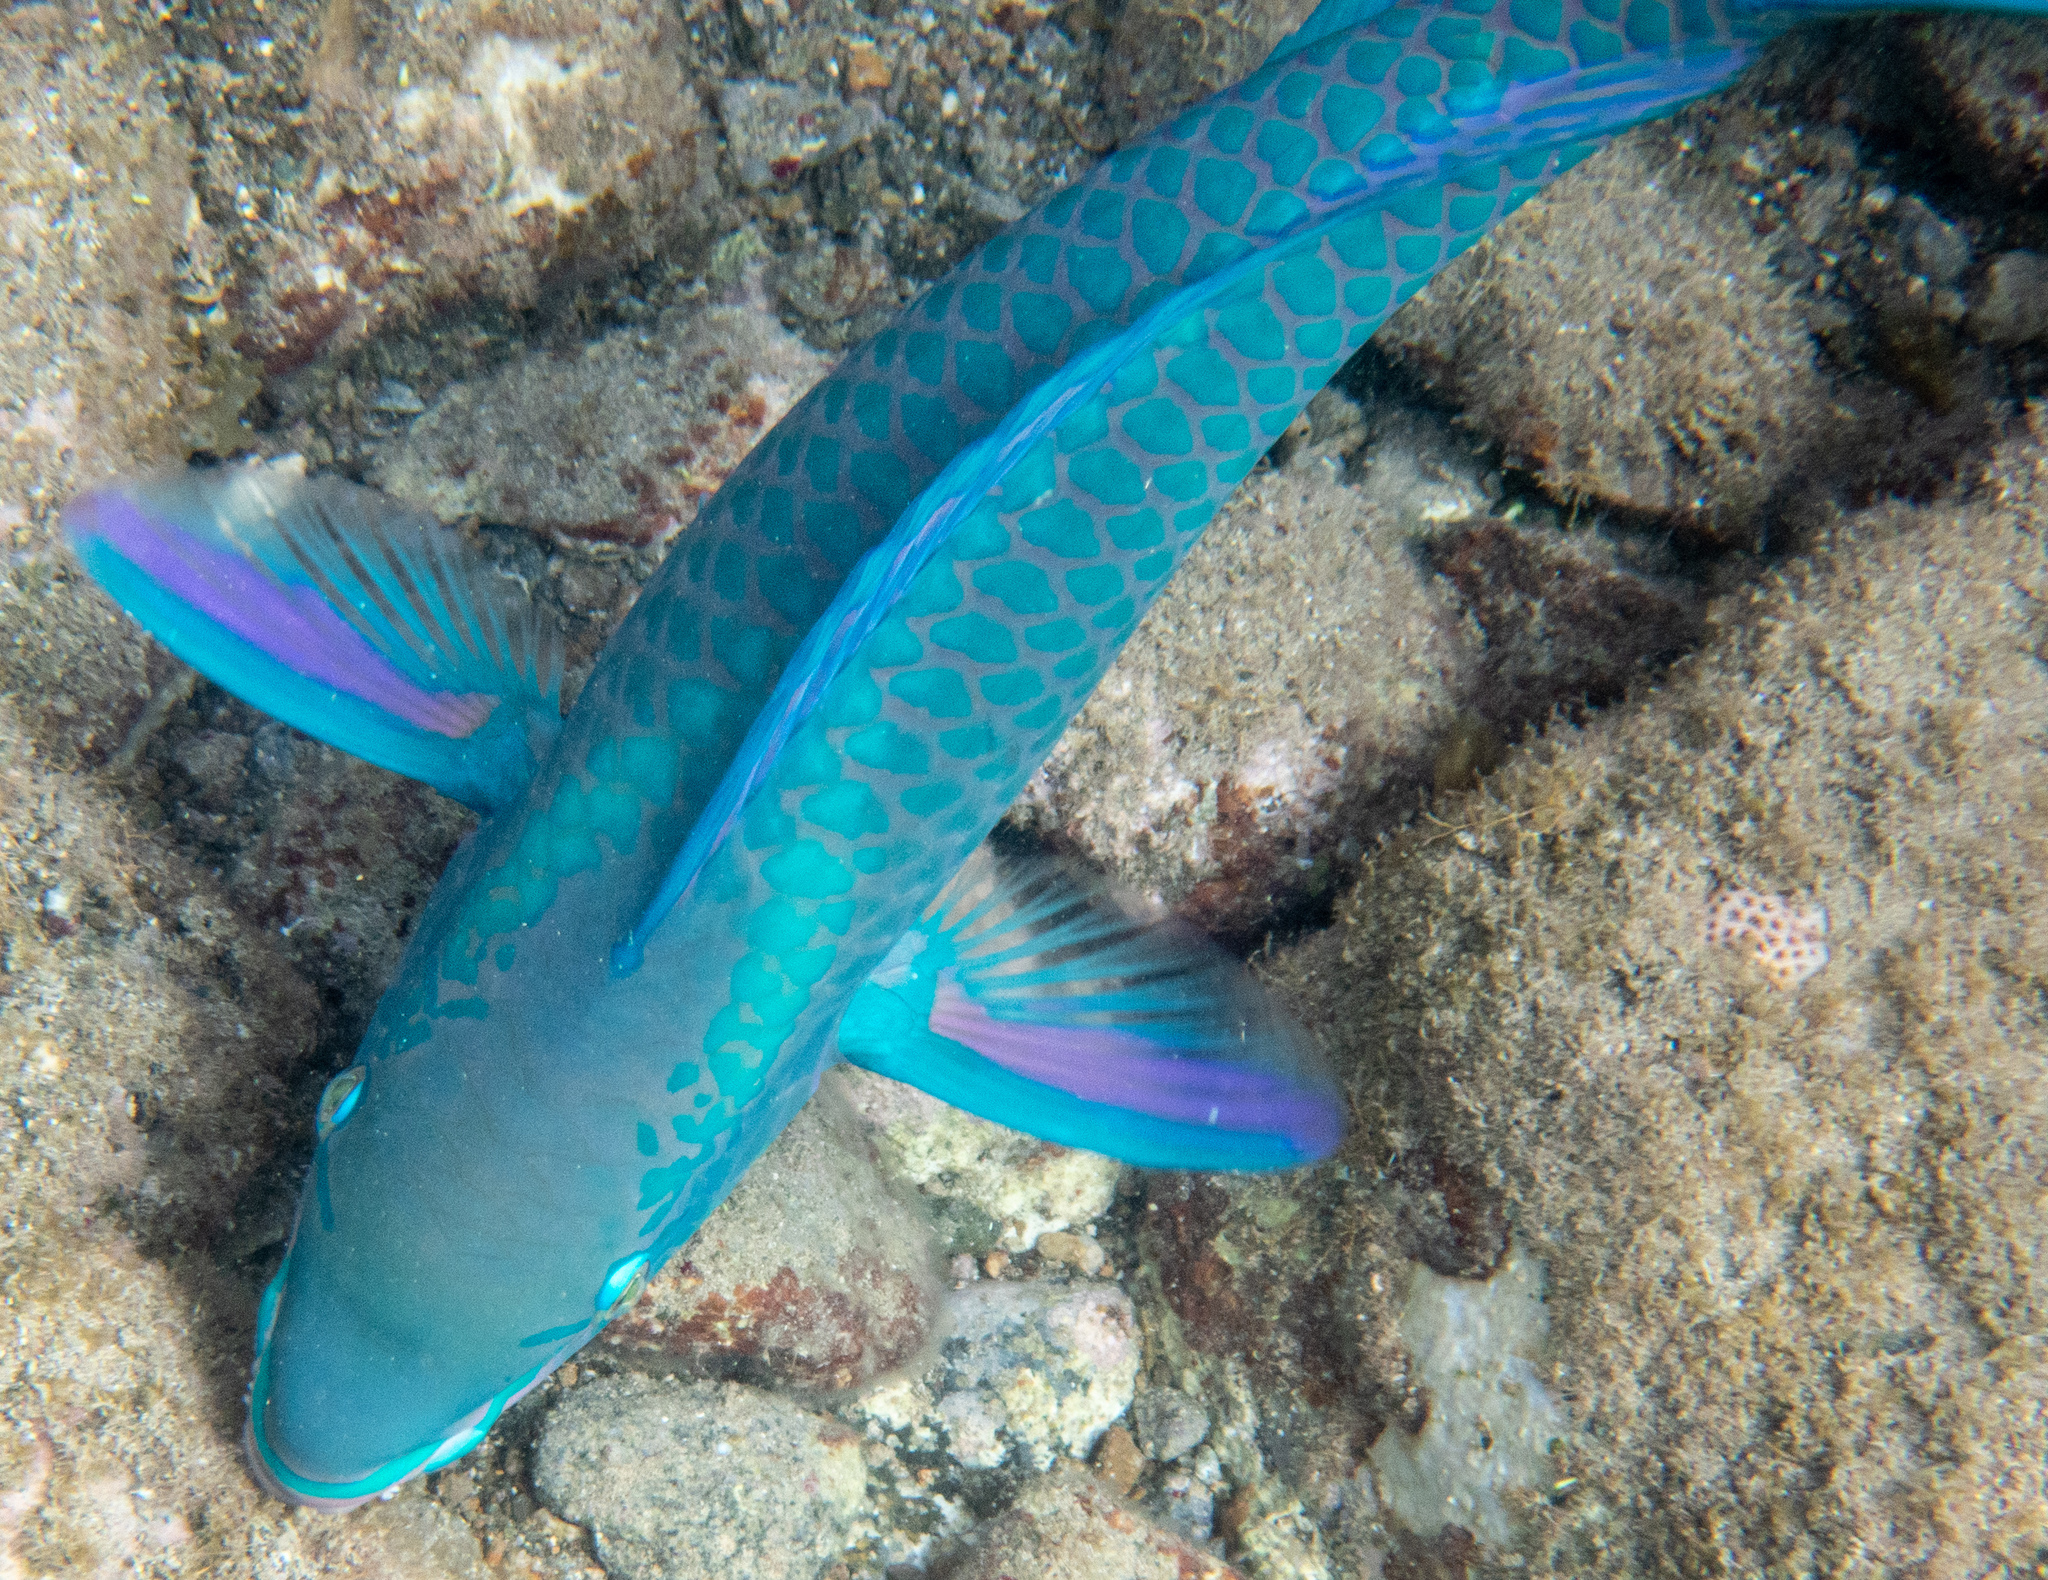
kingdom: Animalia
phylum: Chordata
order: Perciformes
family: Scaridae
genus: Scarus
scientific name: Scarus vetula
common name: Queen parrotfish
